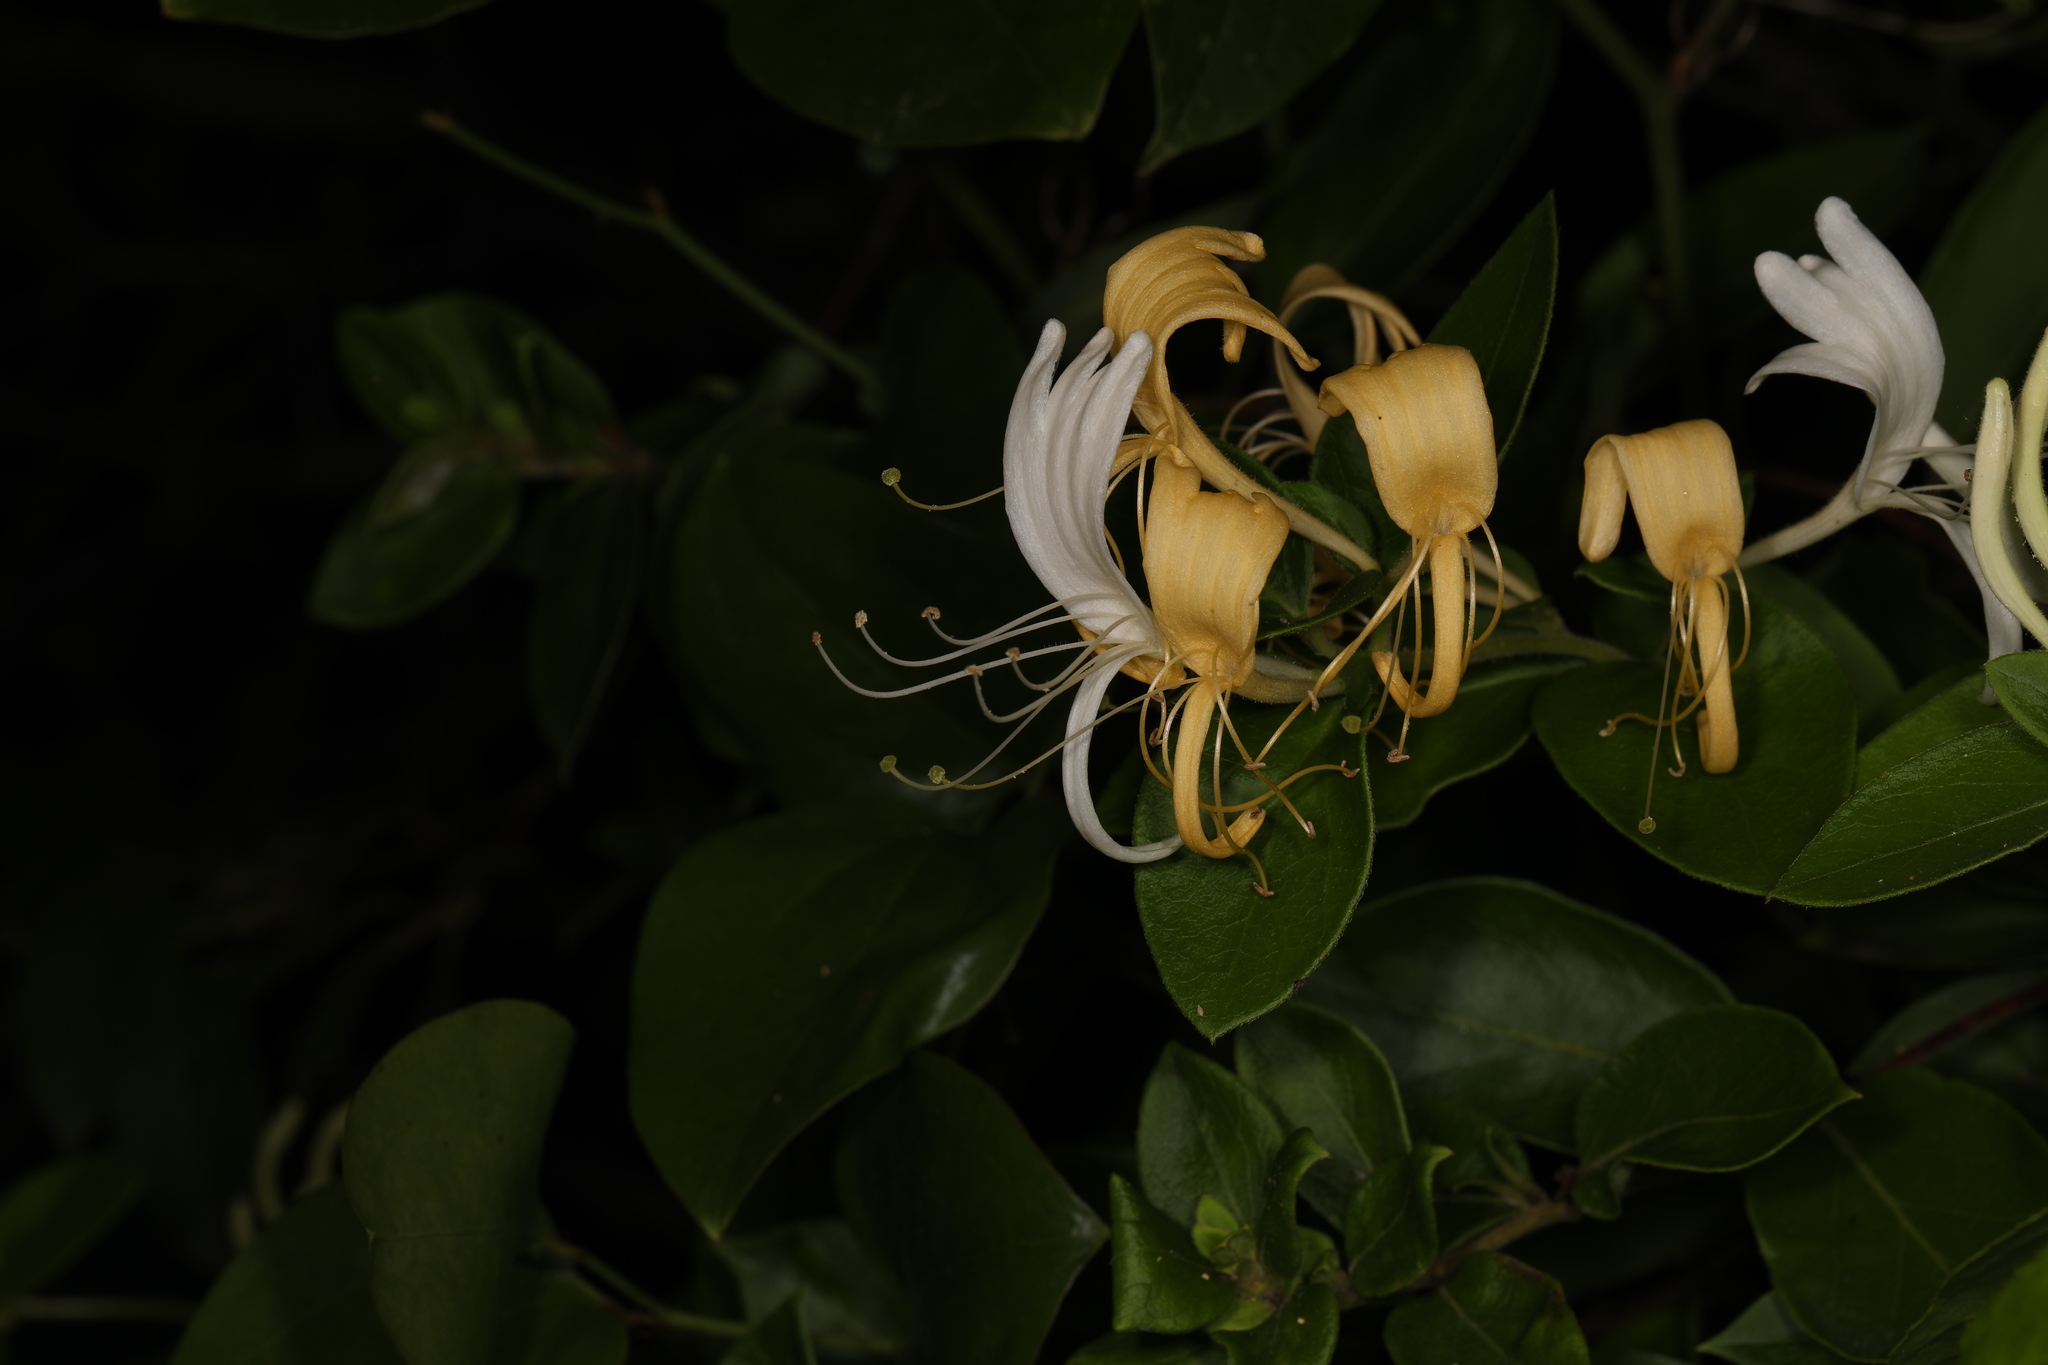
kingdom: Plantae
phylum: Tracheophyta
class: Magnoliopsida
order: Dipsacales
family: Caprifoliaceae
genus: Lonicera
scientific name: Lonicera japonica
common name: Japanese honeysuckle
